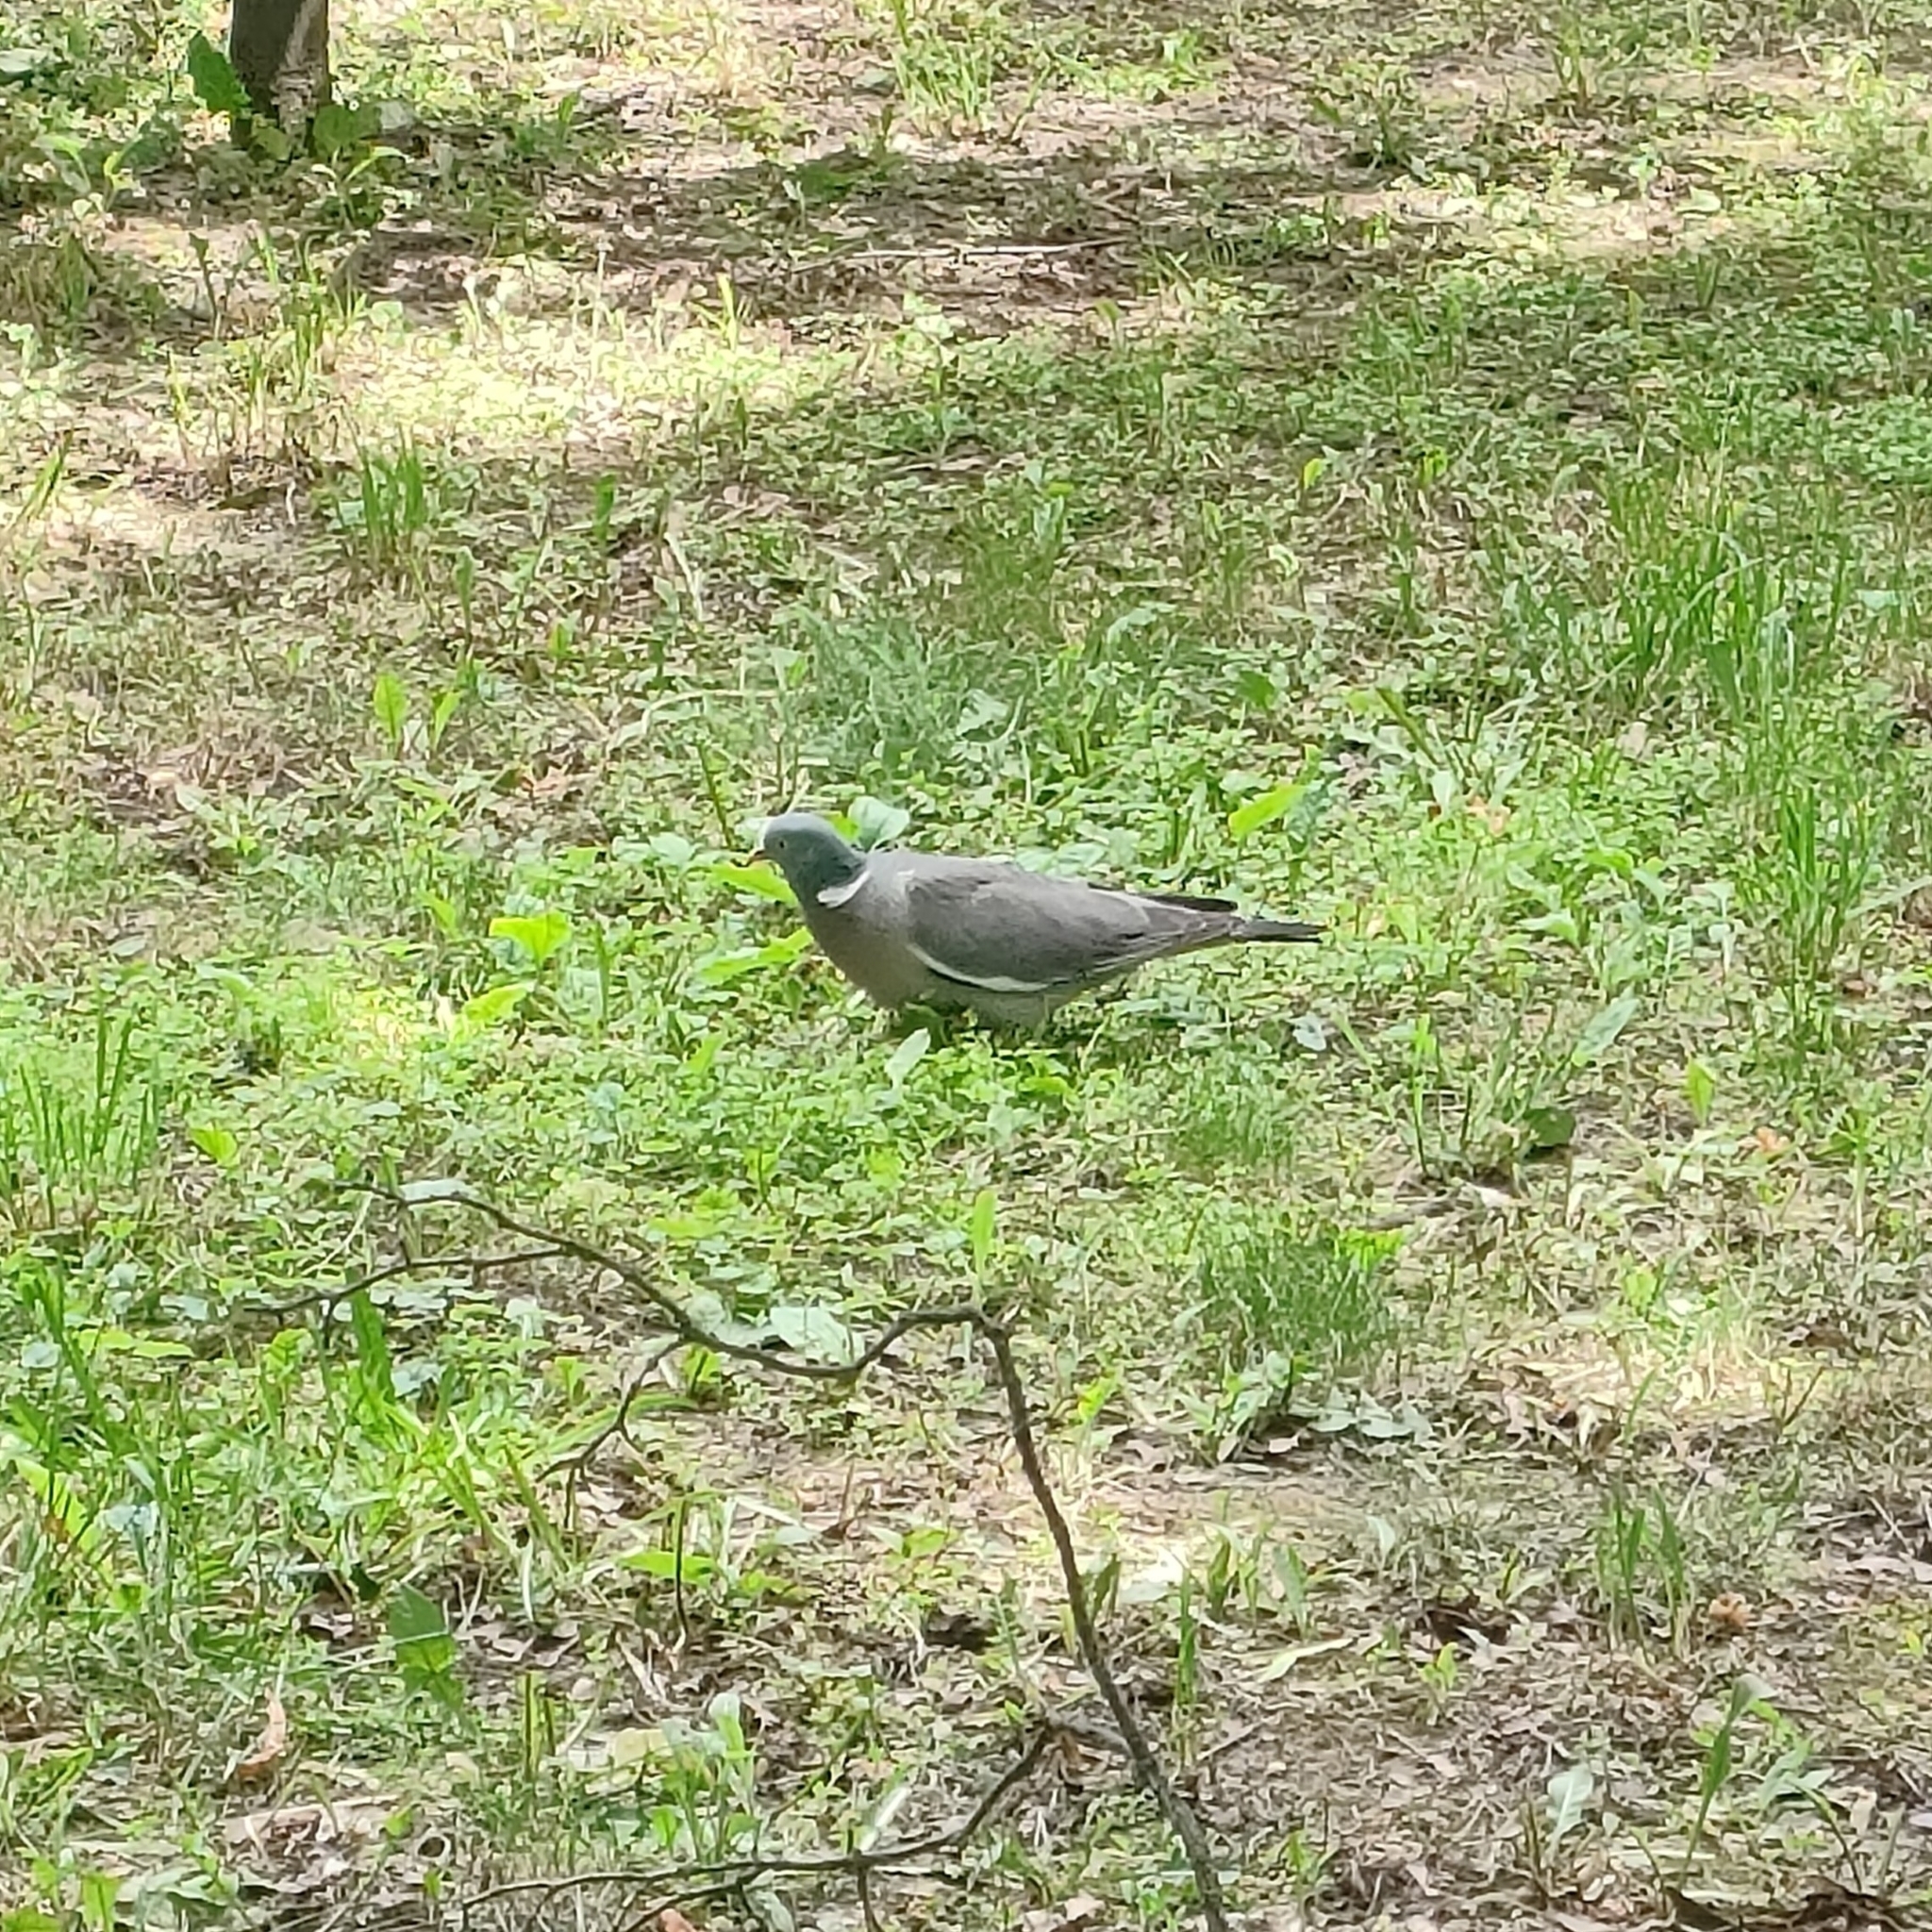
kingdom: Animalia
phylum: Chordata
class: Aves
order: Columbiformes
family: Columbidae
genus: Columba
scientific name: Columba palumbus
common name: Common wood pigeon
